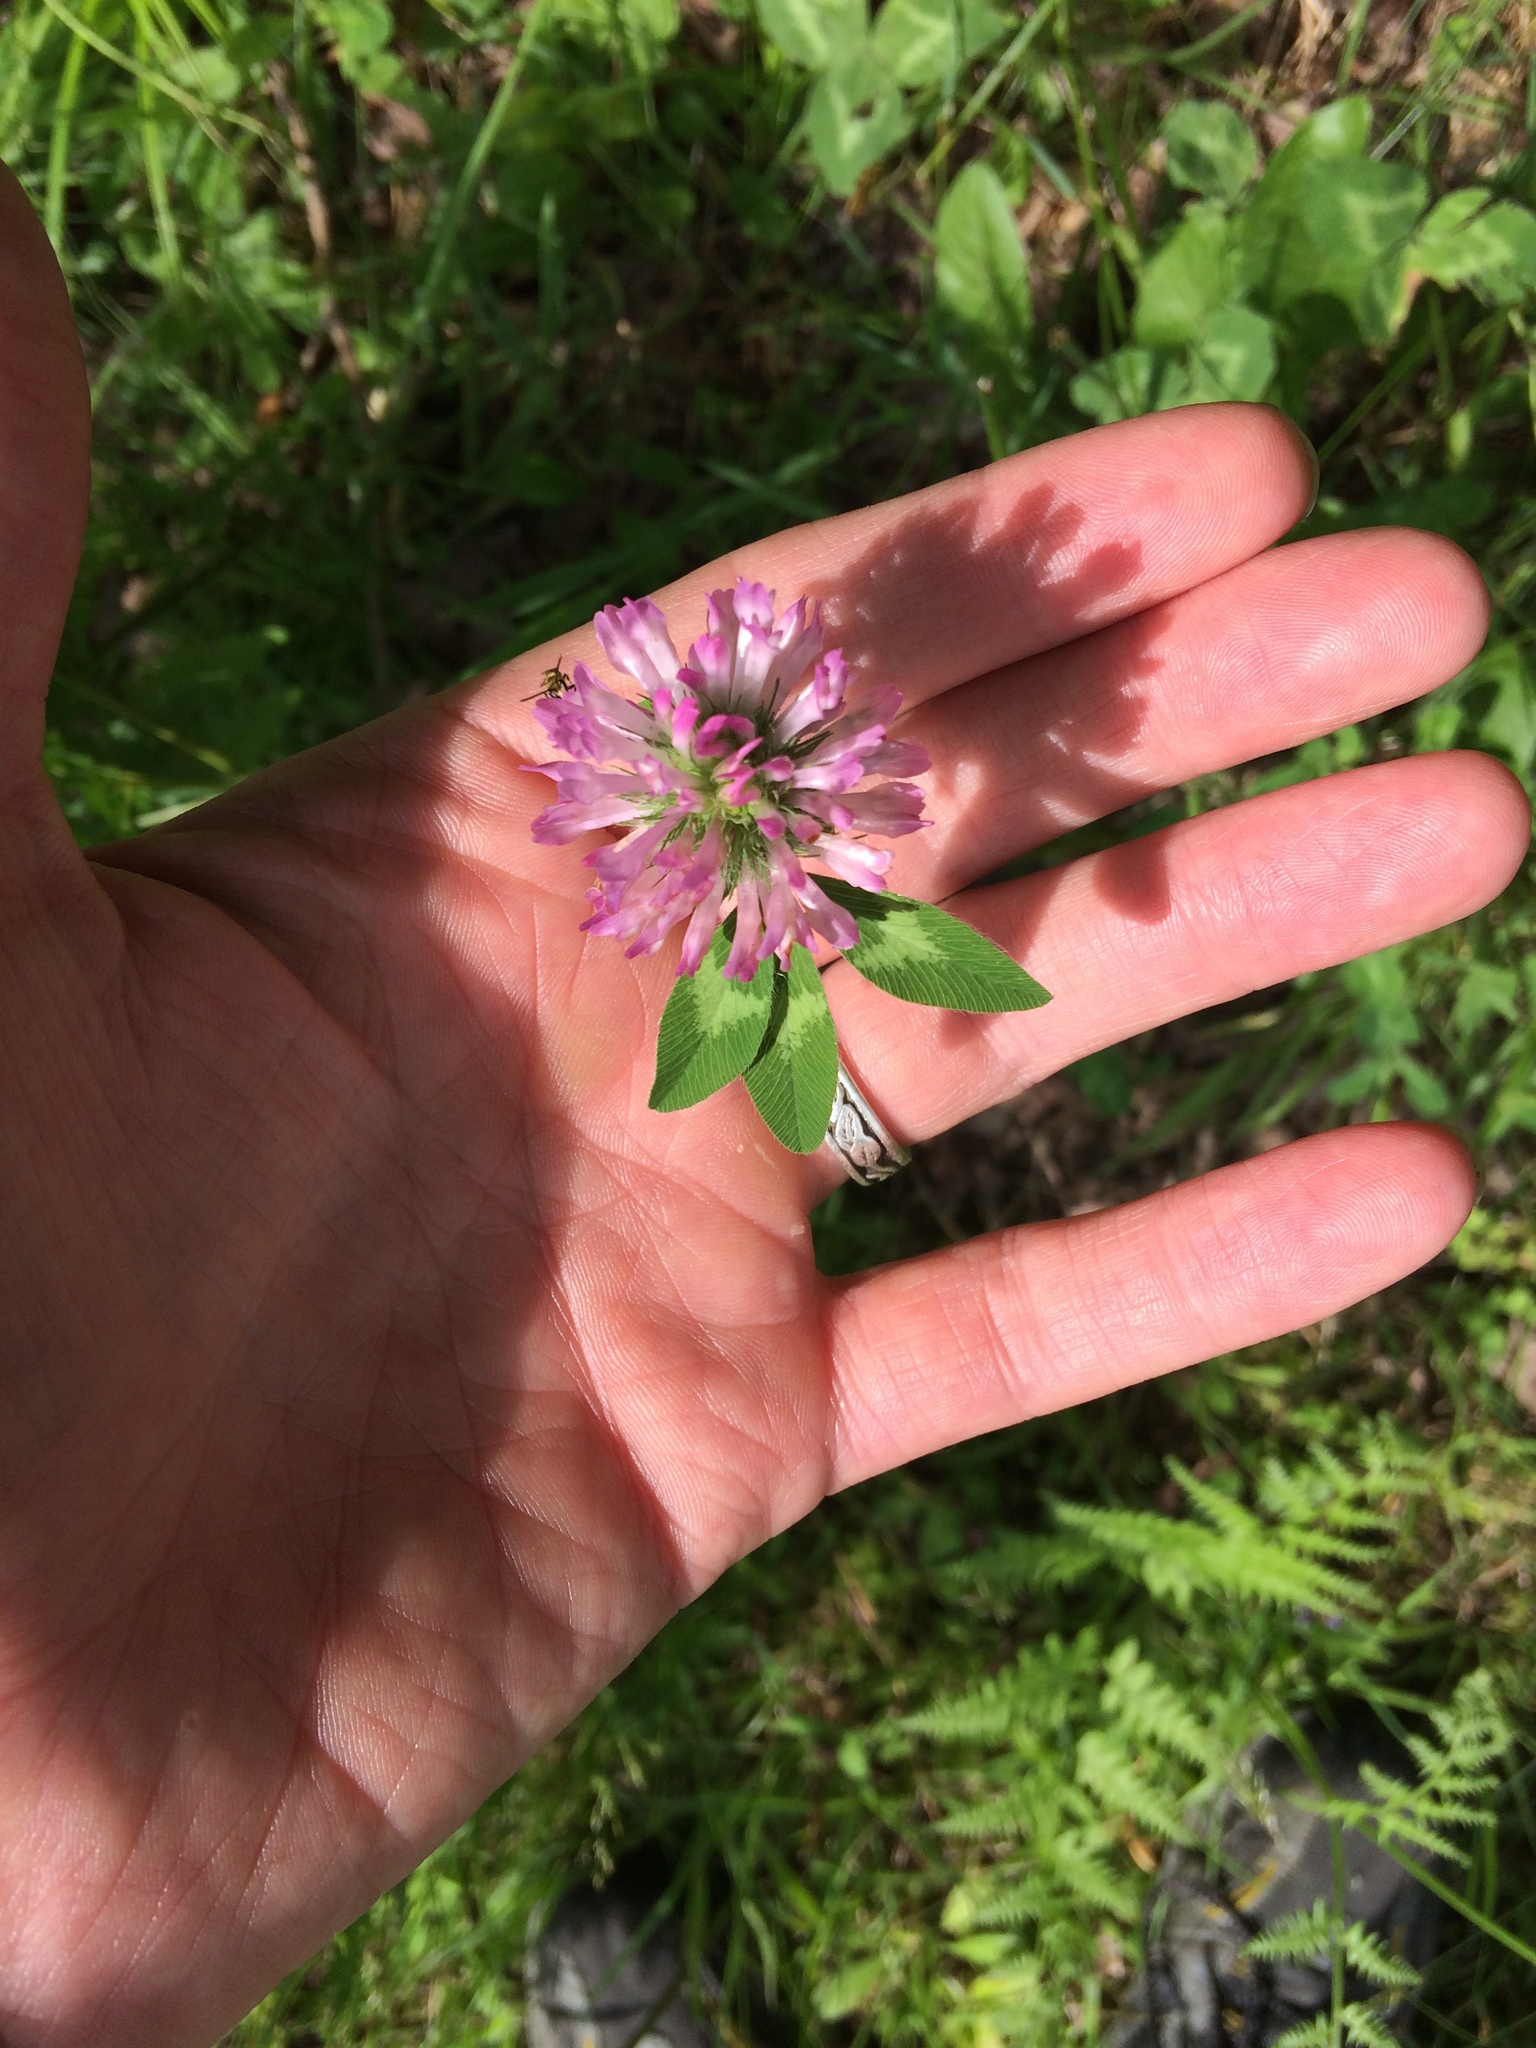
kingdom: Plantae
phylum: Tracheophyta
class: Magnoliopsida
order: Fabales
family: Fabaceae
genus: Trifolium
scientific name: Trifolium pratense
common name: Red clover
